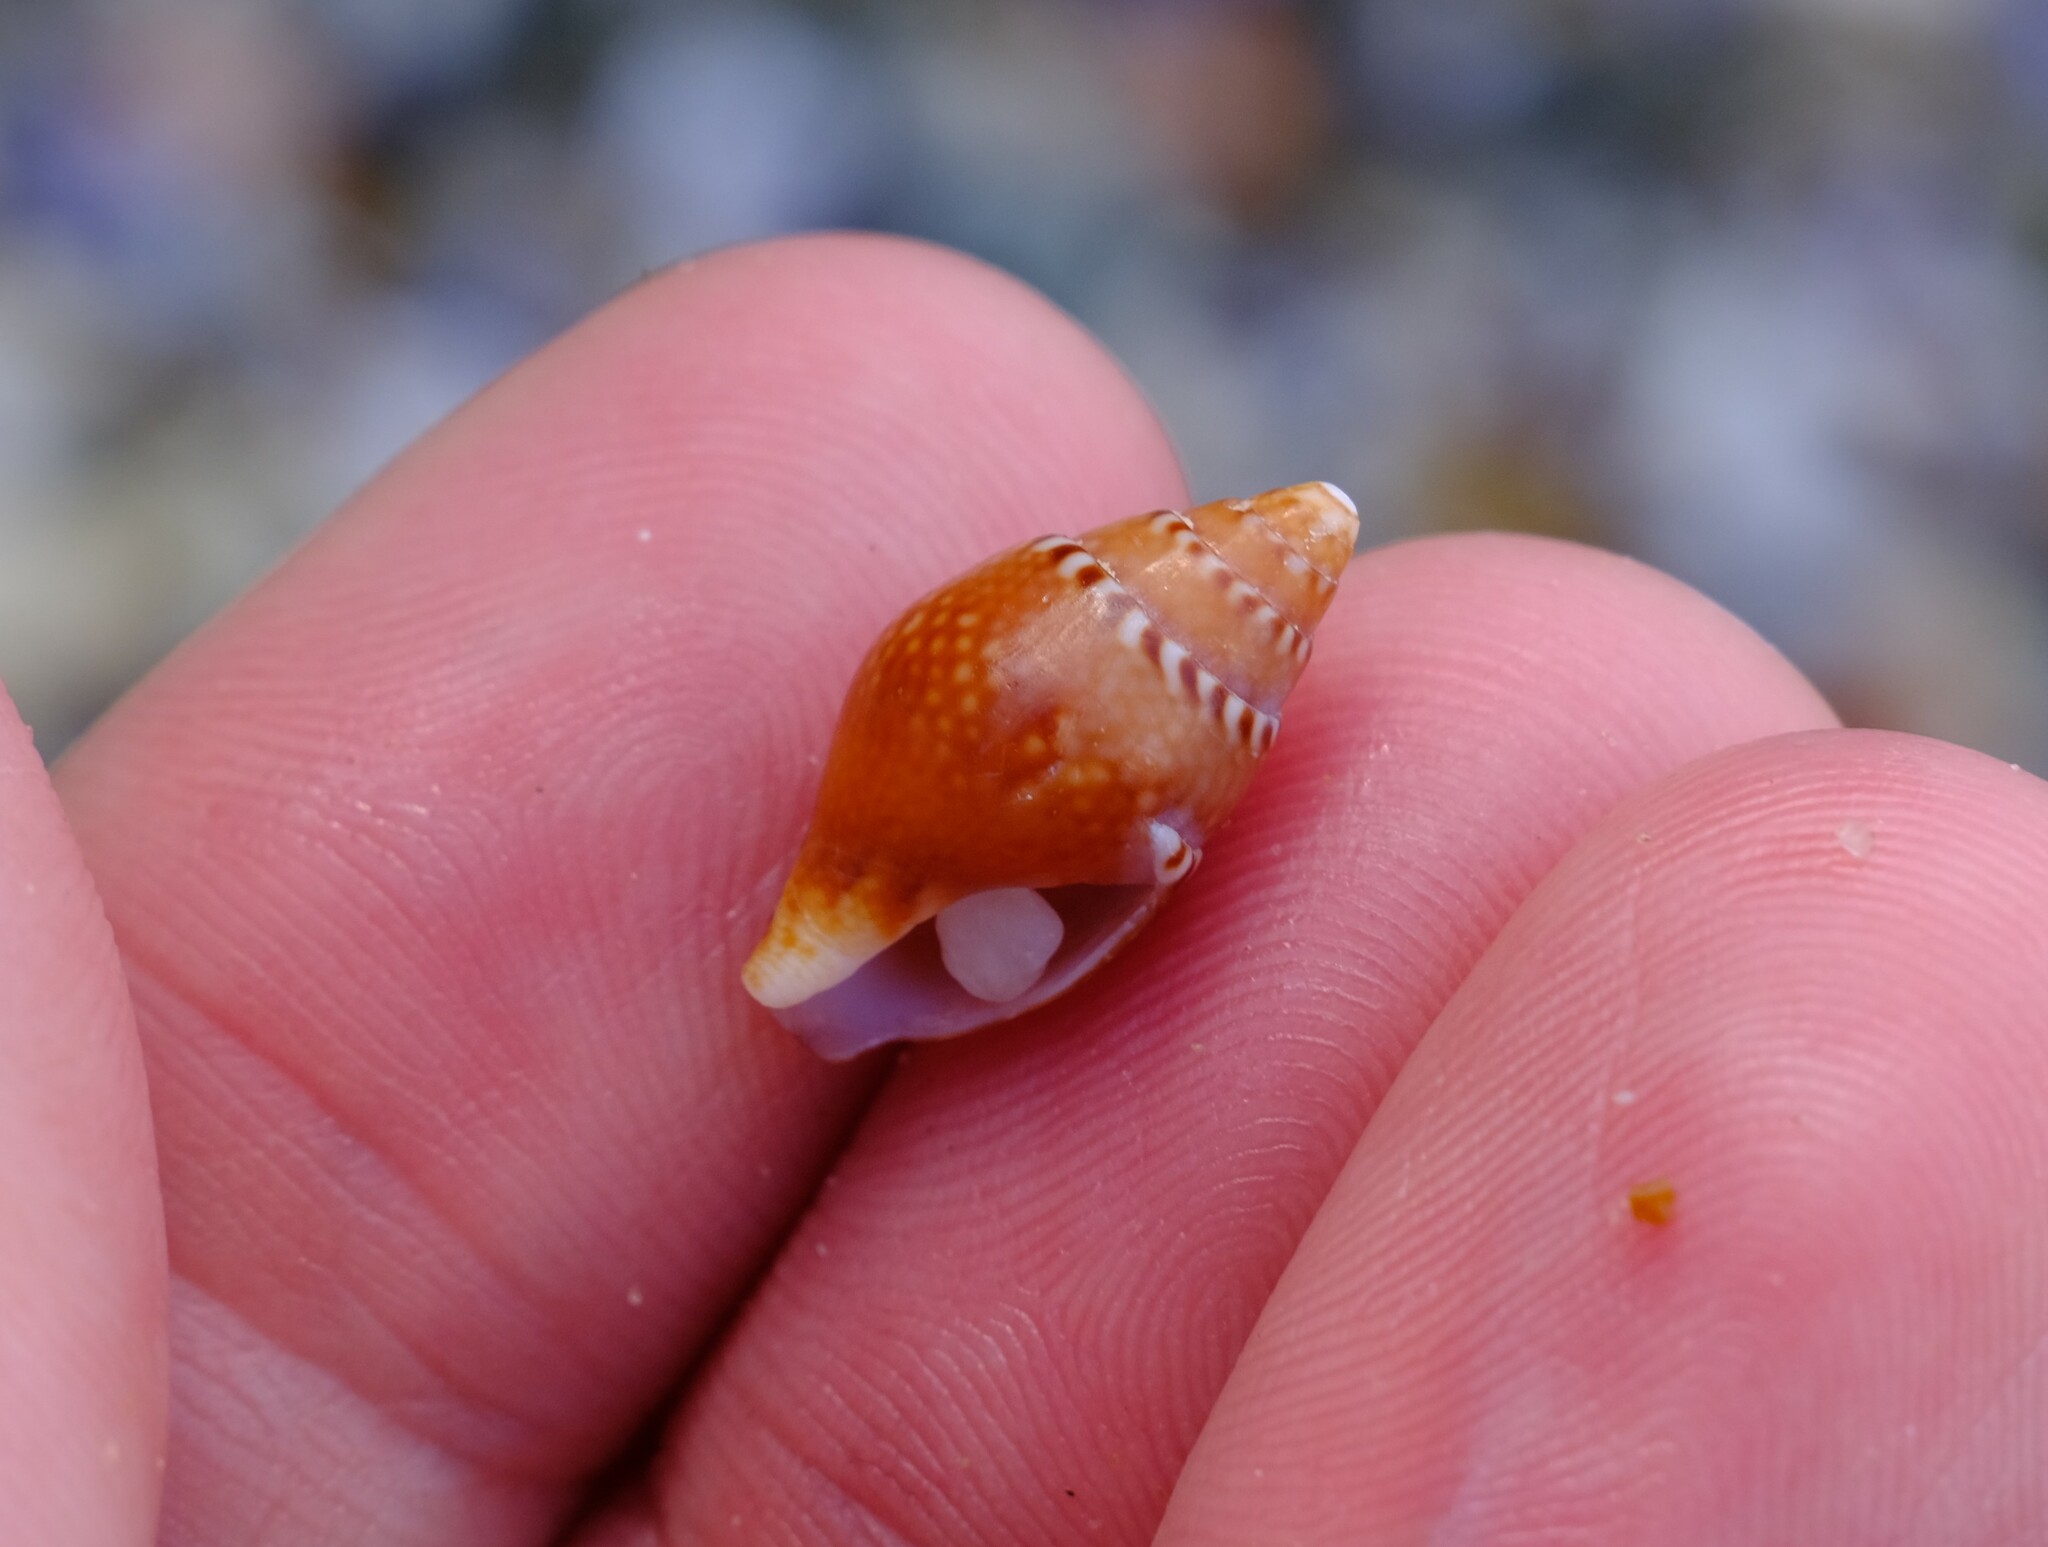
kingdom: Animalia
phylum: Mollusca
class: Gastropoda
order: Neogastropoda
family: Columbellidae
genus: Pardalinops de
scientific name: Pardalinops de Pardalinops testudinaria
